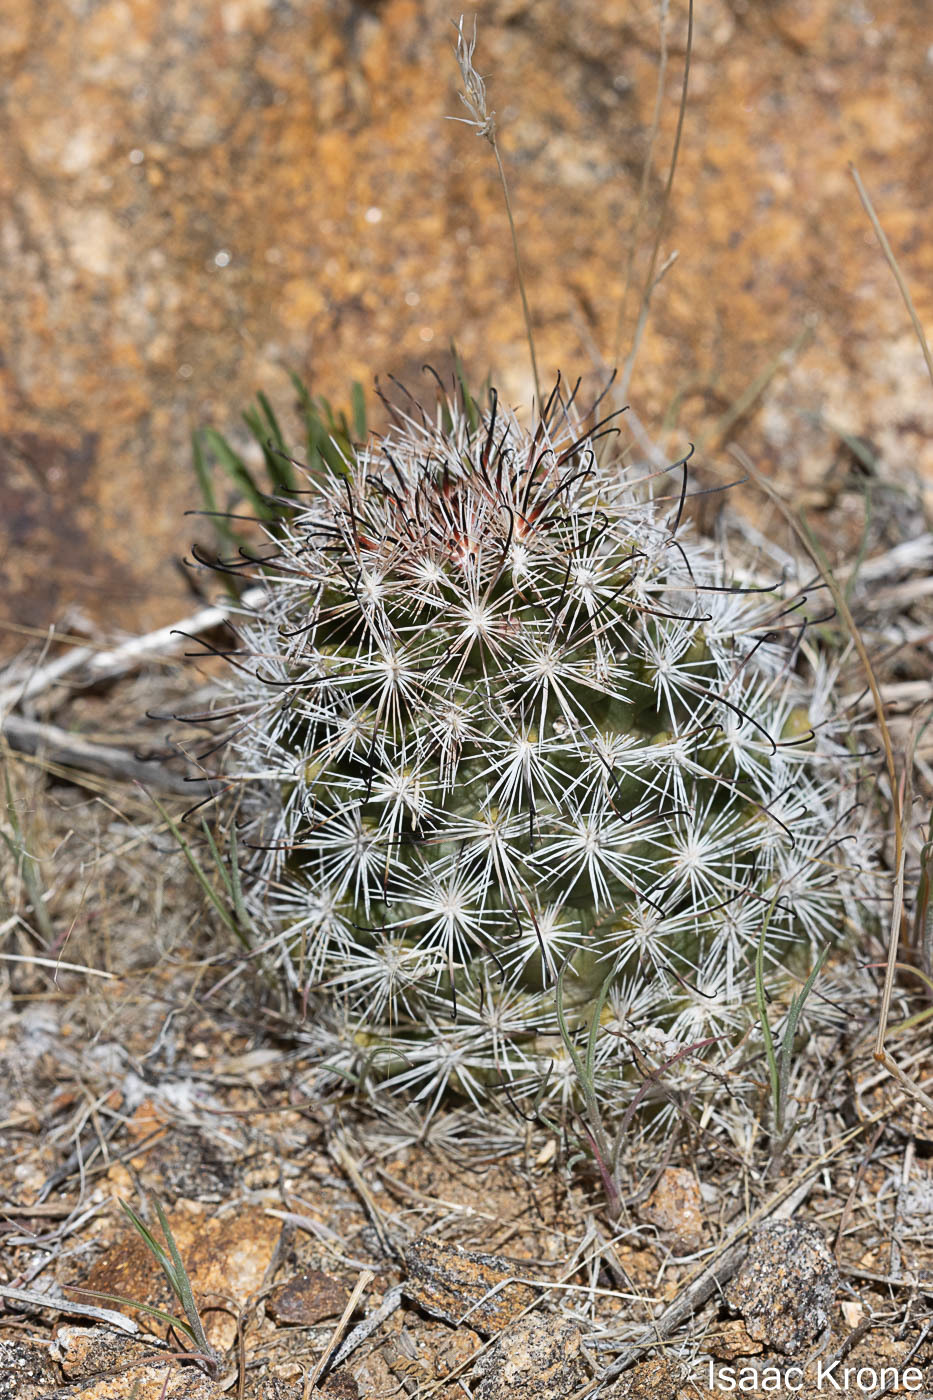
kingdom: Plantae
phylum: Tracheophyta
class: Magnoliopsida
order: Caryophyllales
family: Cactaceae
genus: Cochemiea
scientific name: Cochemiea dioica
